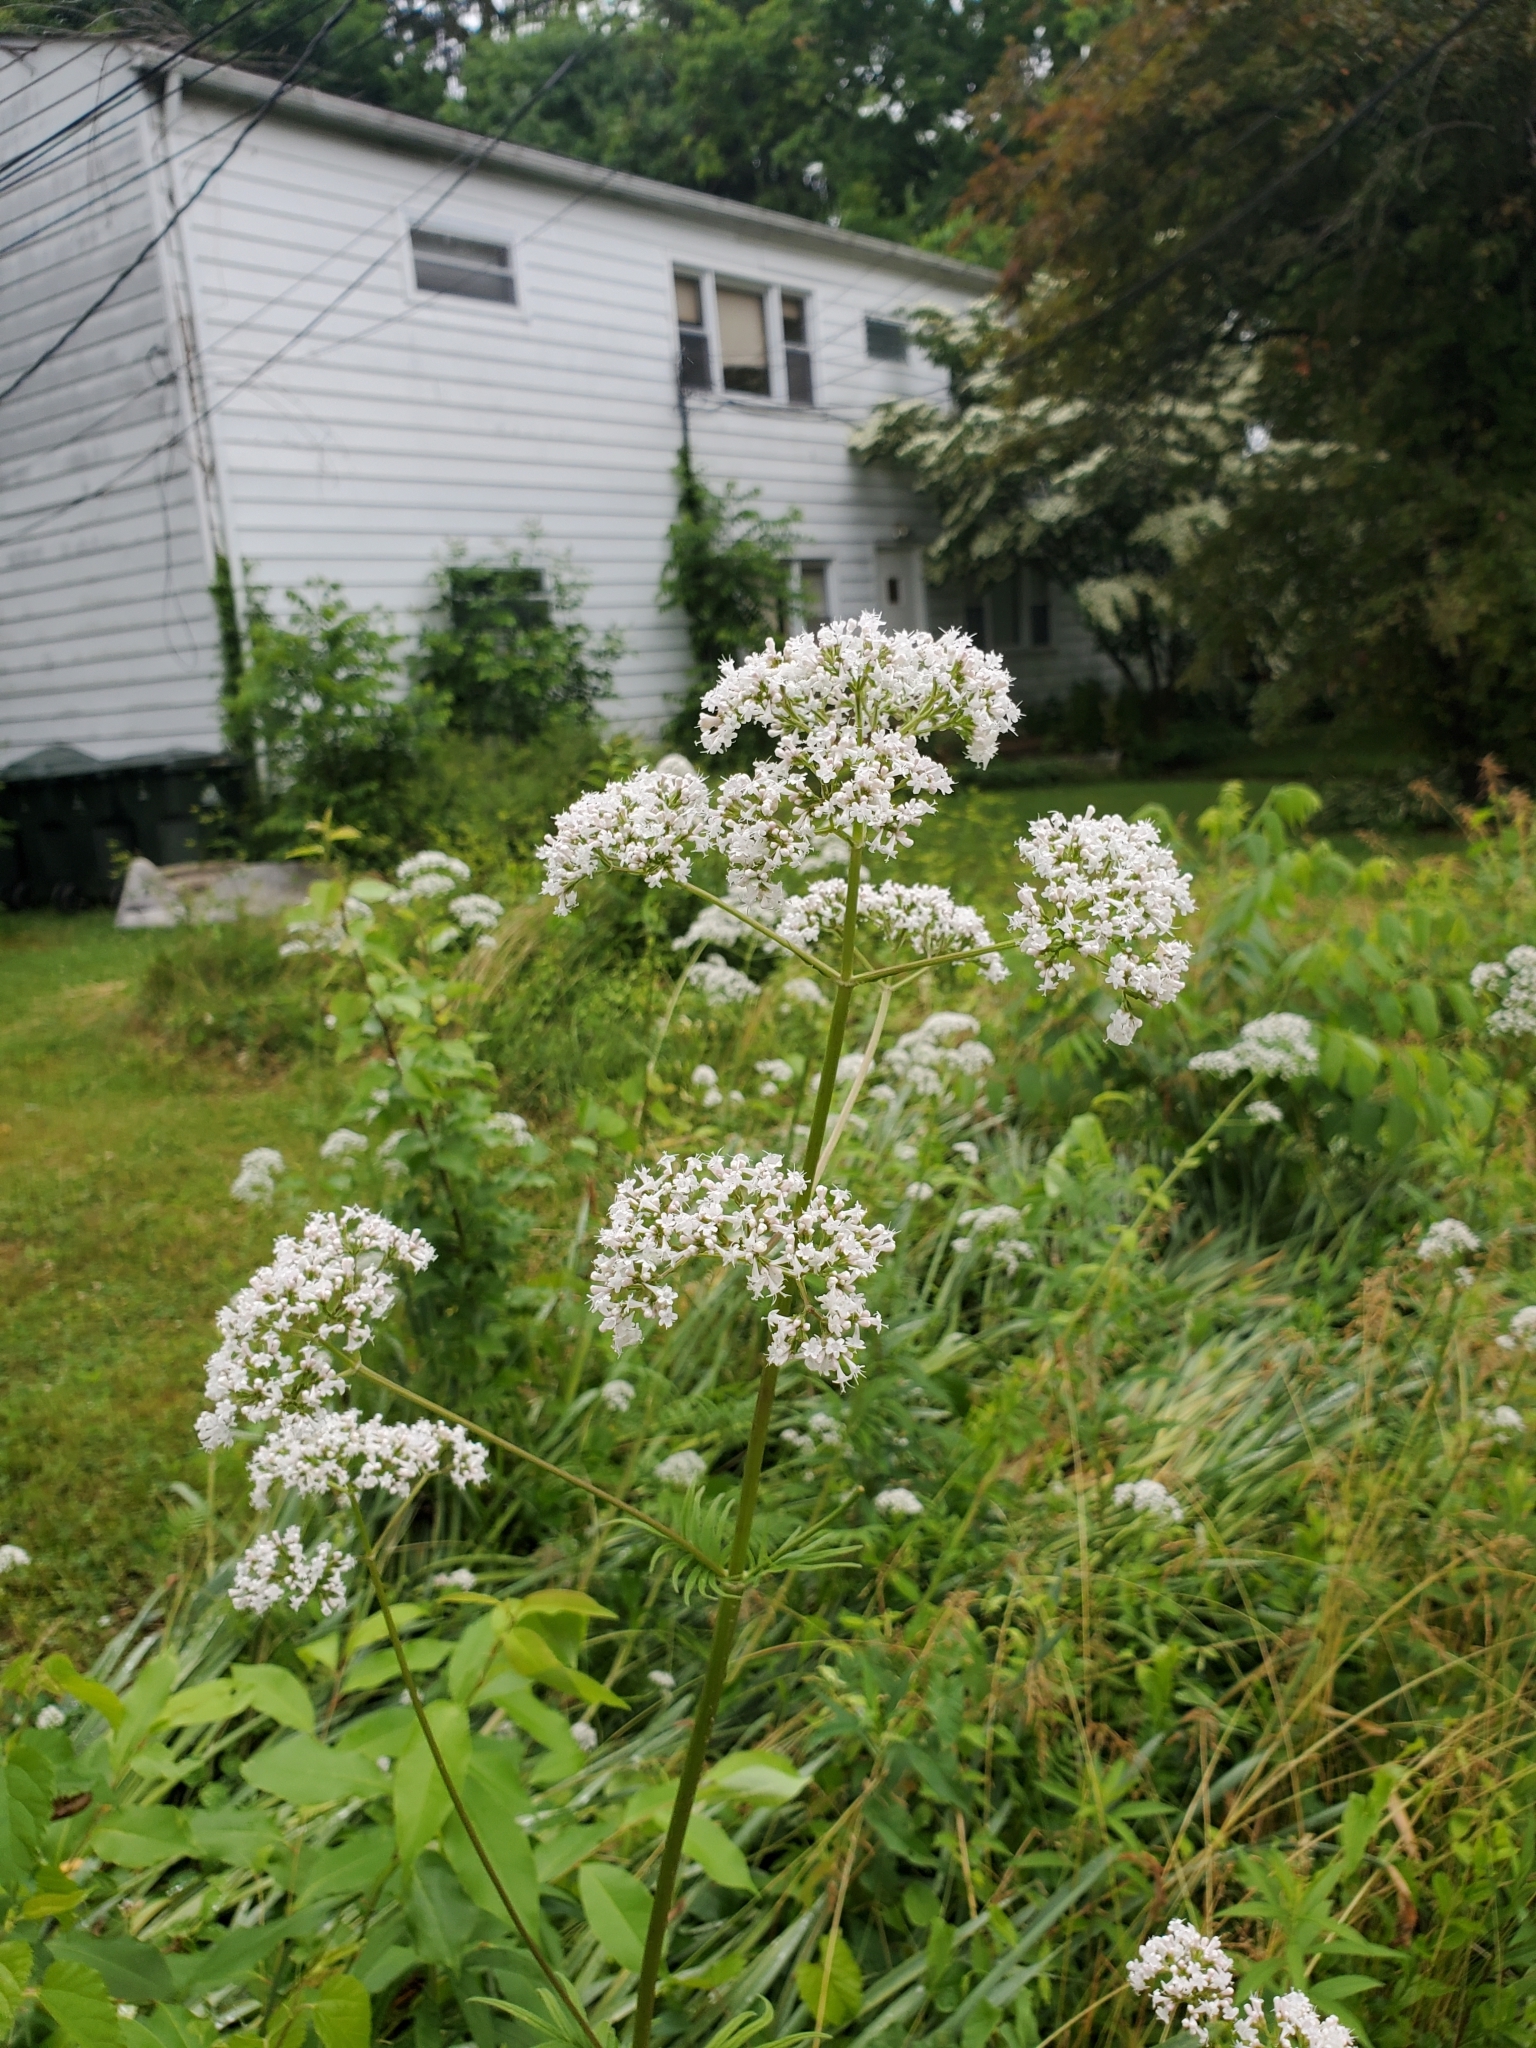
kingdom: Plantae
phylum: Tracheophyta
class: Magnoliopsida
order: Dipsacales
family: Caprifoliaceae
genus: Valeriana
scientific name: Valeriana officinalis
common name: Common valerian
